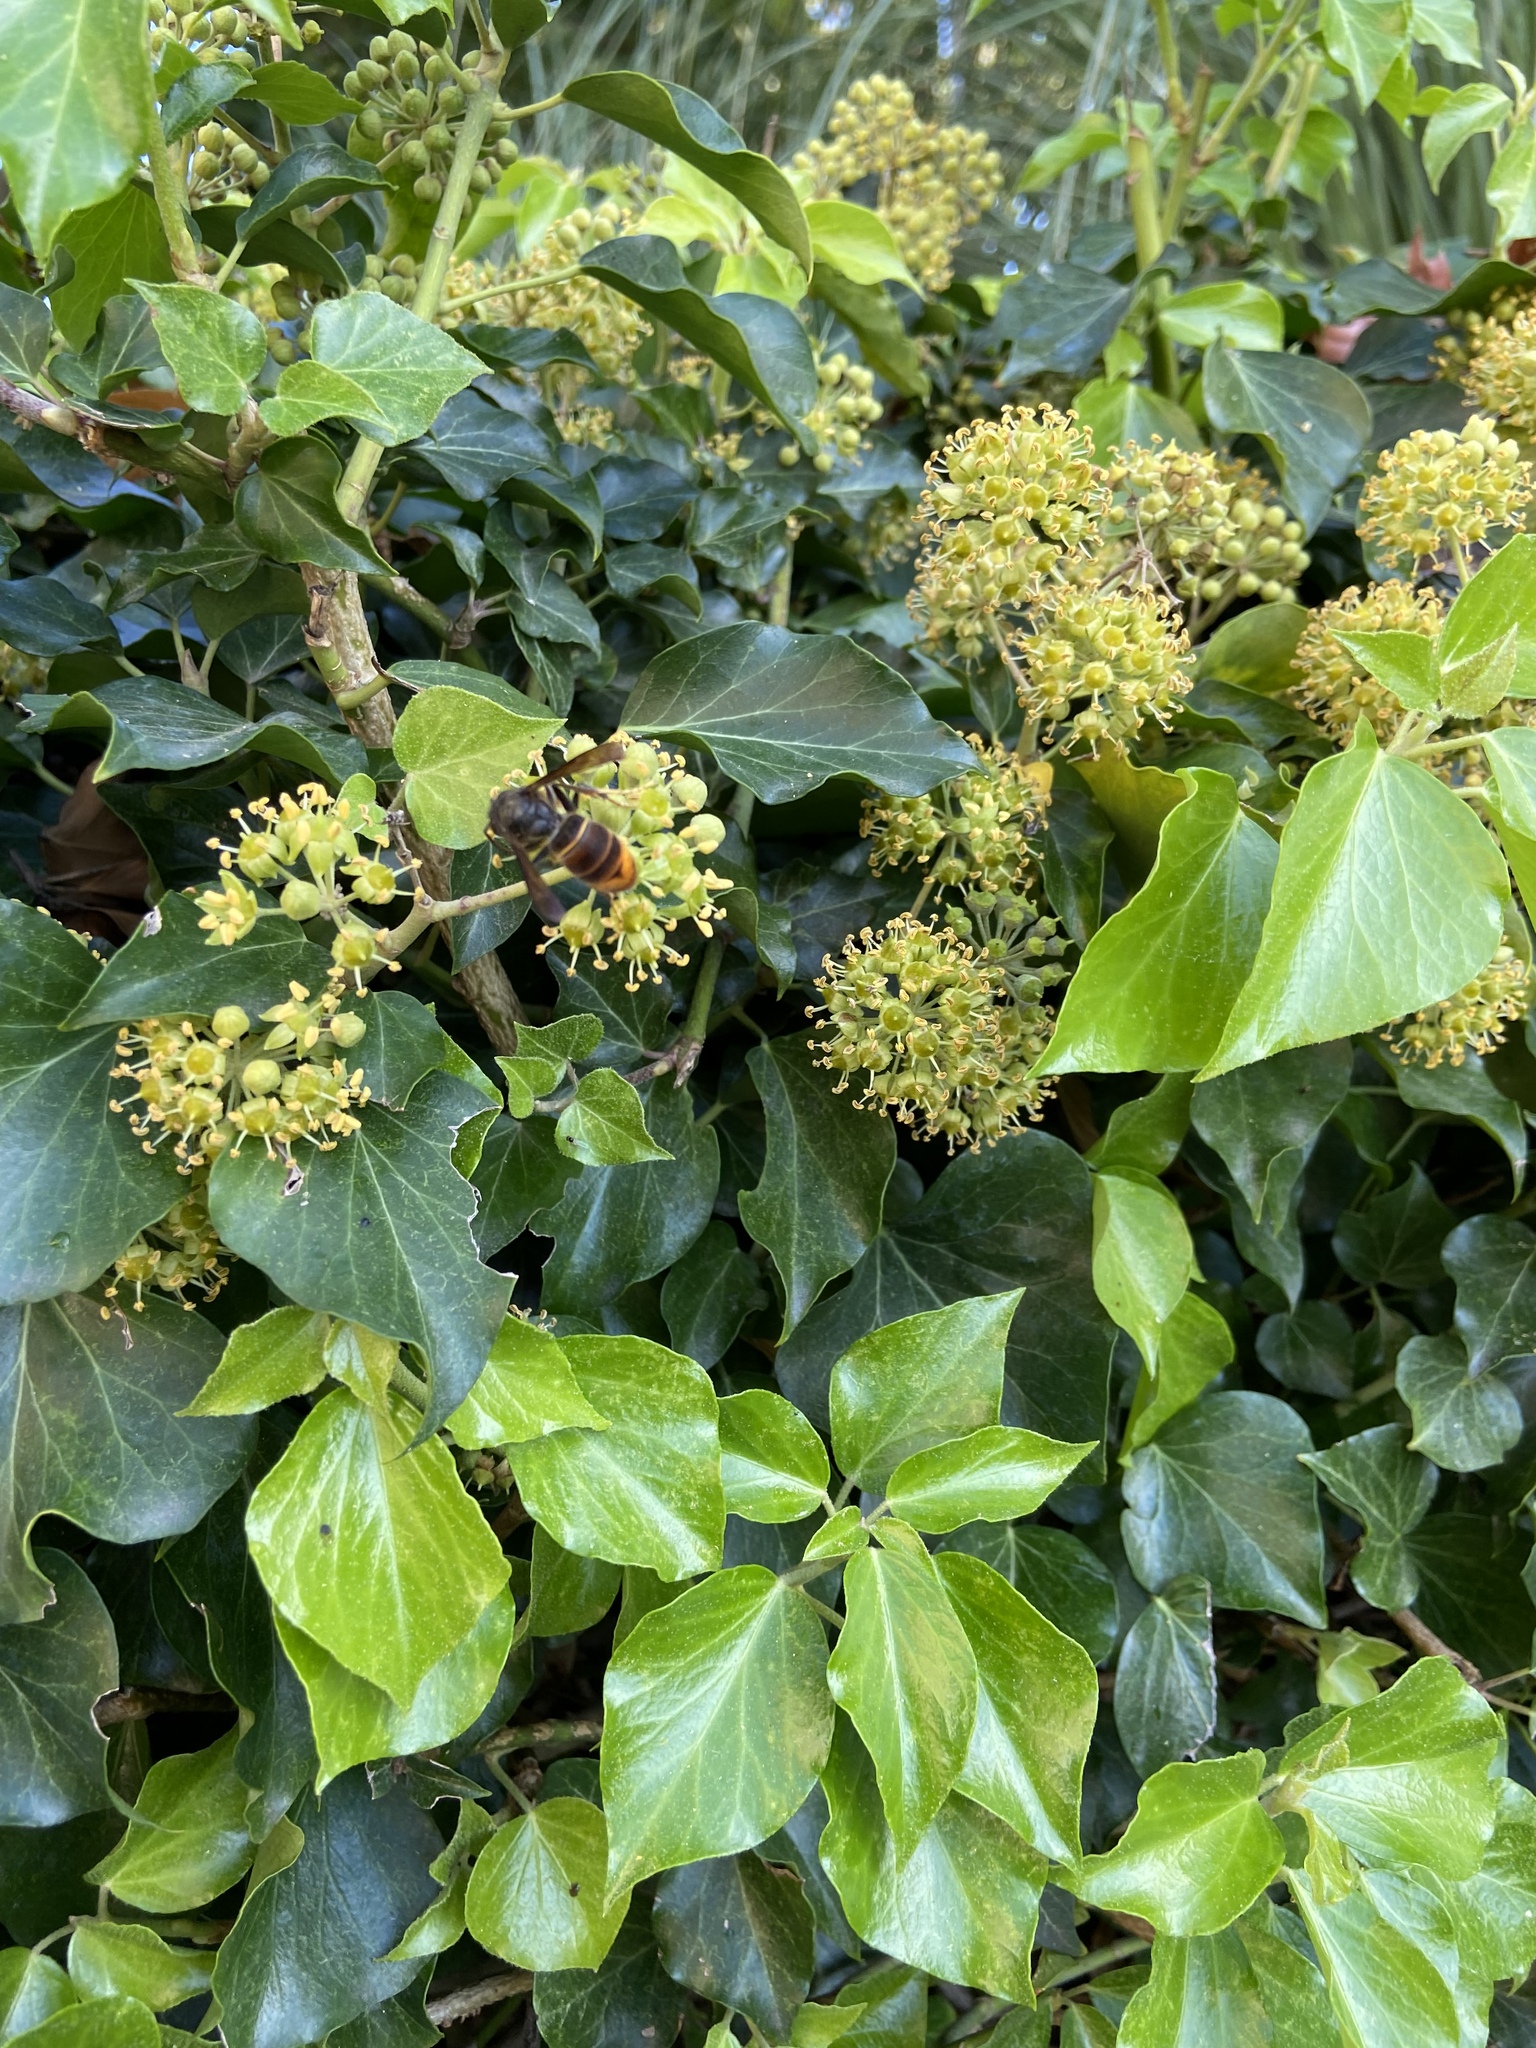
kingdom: Animalia
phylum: Arthropoda
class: Insecta
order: Hymenoptera
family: Vespidae
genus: Vespa
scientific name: Vespa velutina
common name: Asian hornet
